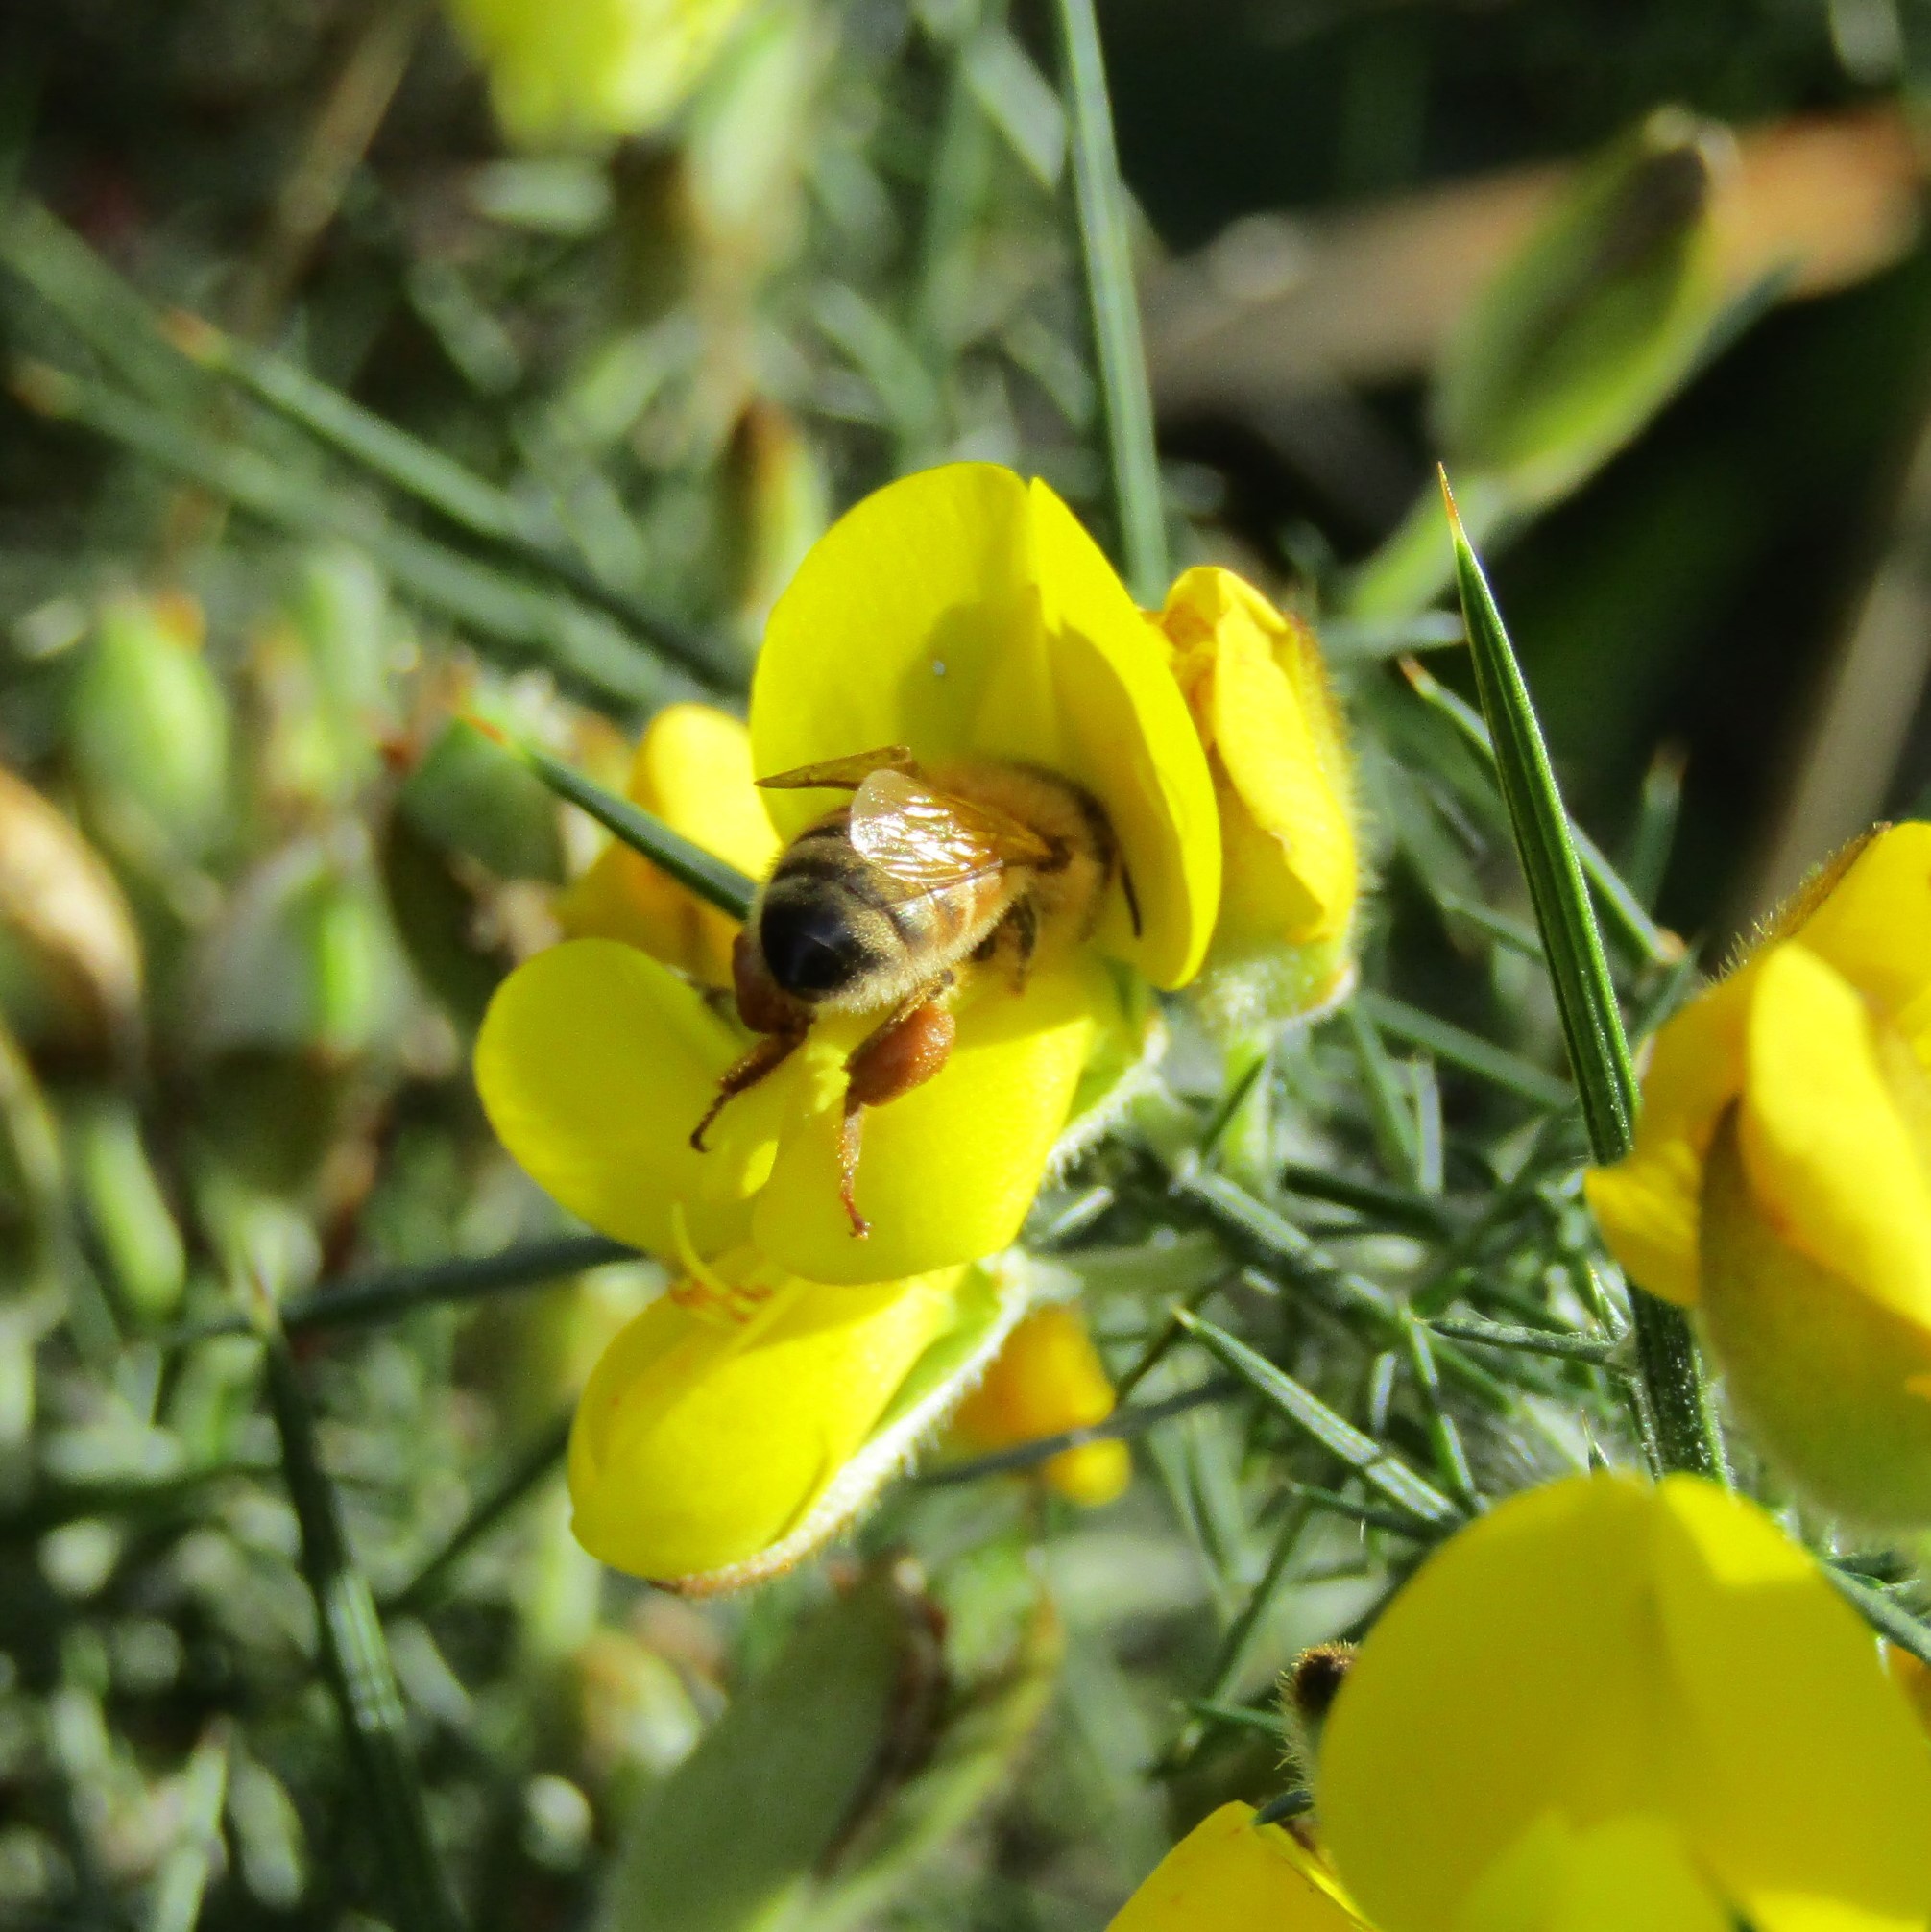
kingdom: Plantae
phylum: Tracheophyta
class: Magnoliopsida
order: Fabales
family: Fabaceae
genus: Ulex
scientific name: Ulex europaeus
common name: Common gorse
